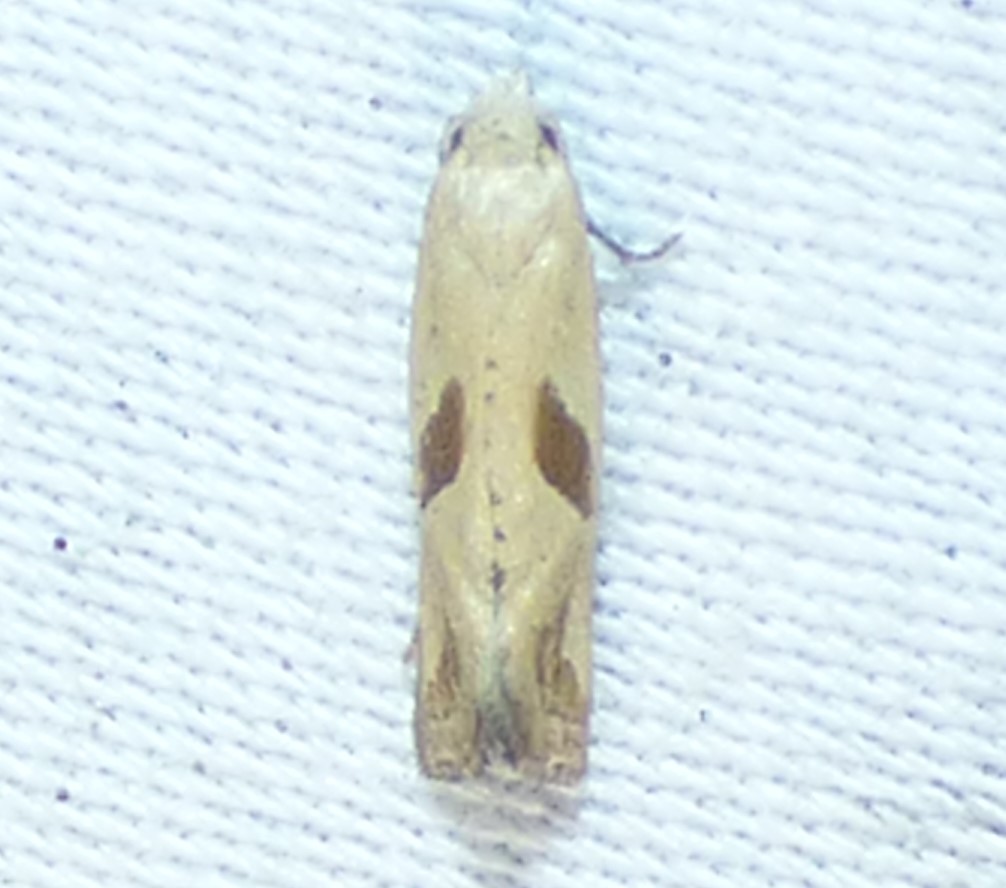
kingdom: Animalia
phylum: Arthropoda
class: Insecta
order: Lepidoptera
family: Tortricidae
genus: Eugnosta
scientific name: Eugnosta bimaculana
